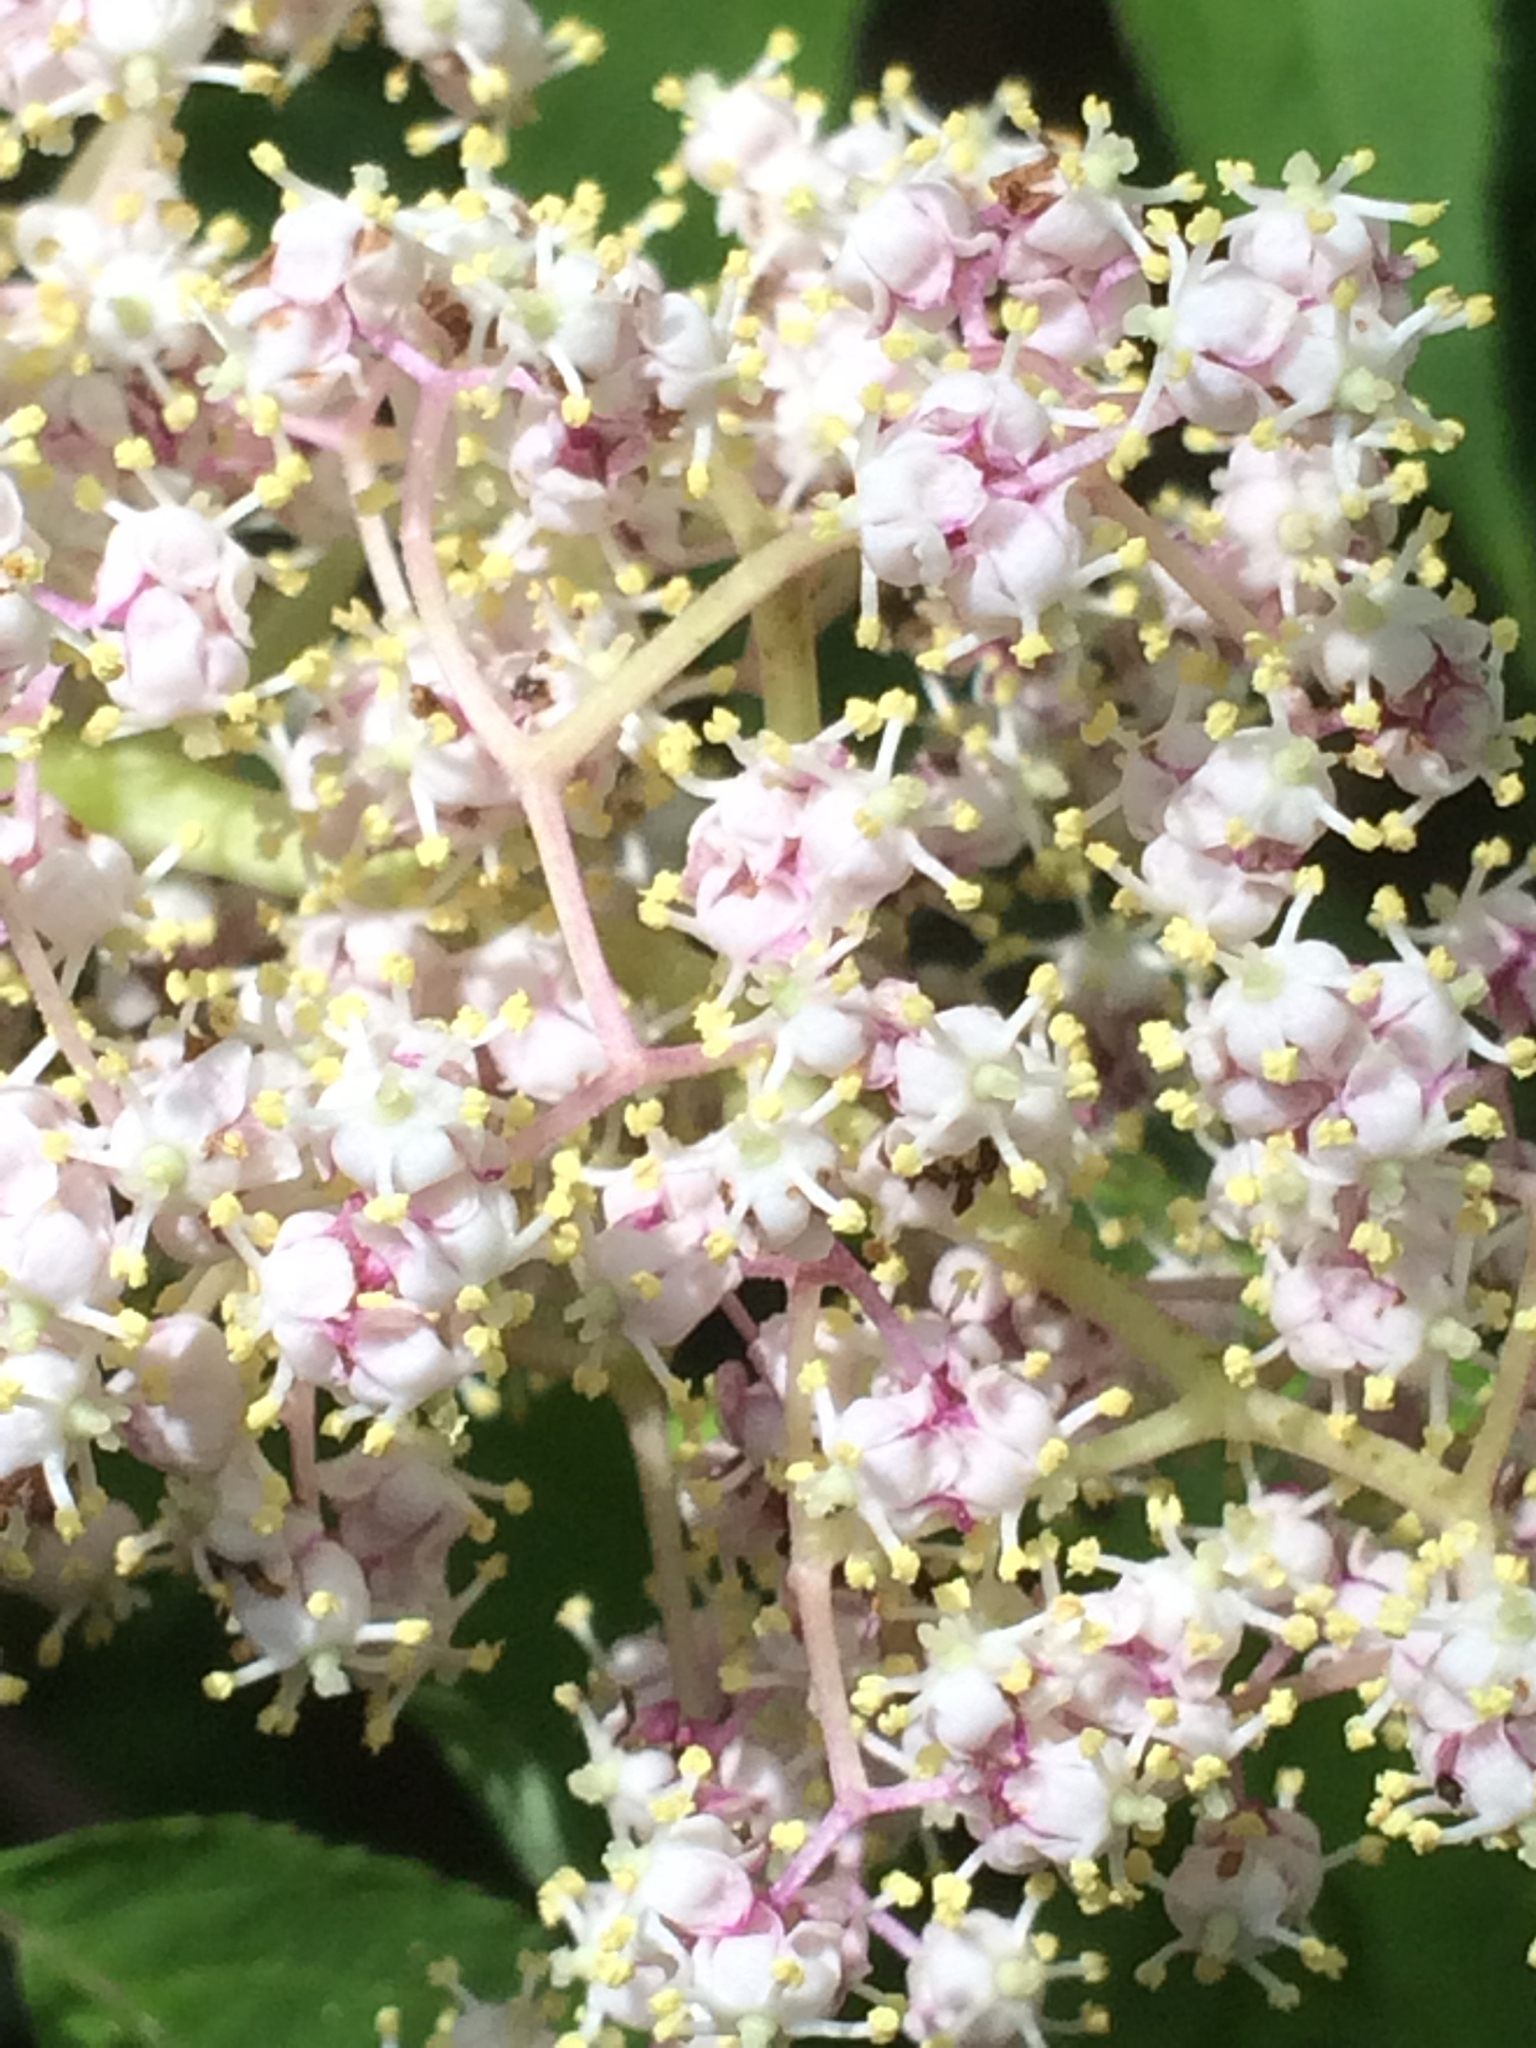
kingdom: Plantae
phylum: Tracheophyta
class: Magnoliopsida
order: Dipsacales
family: Viburnaceae
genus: Sambucus
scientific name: Sambucus racemosa
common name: Red-berried elder
